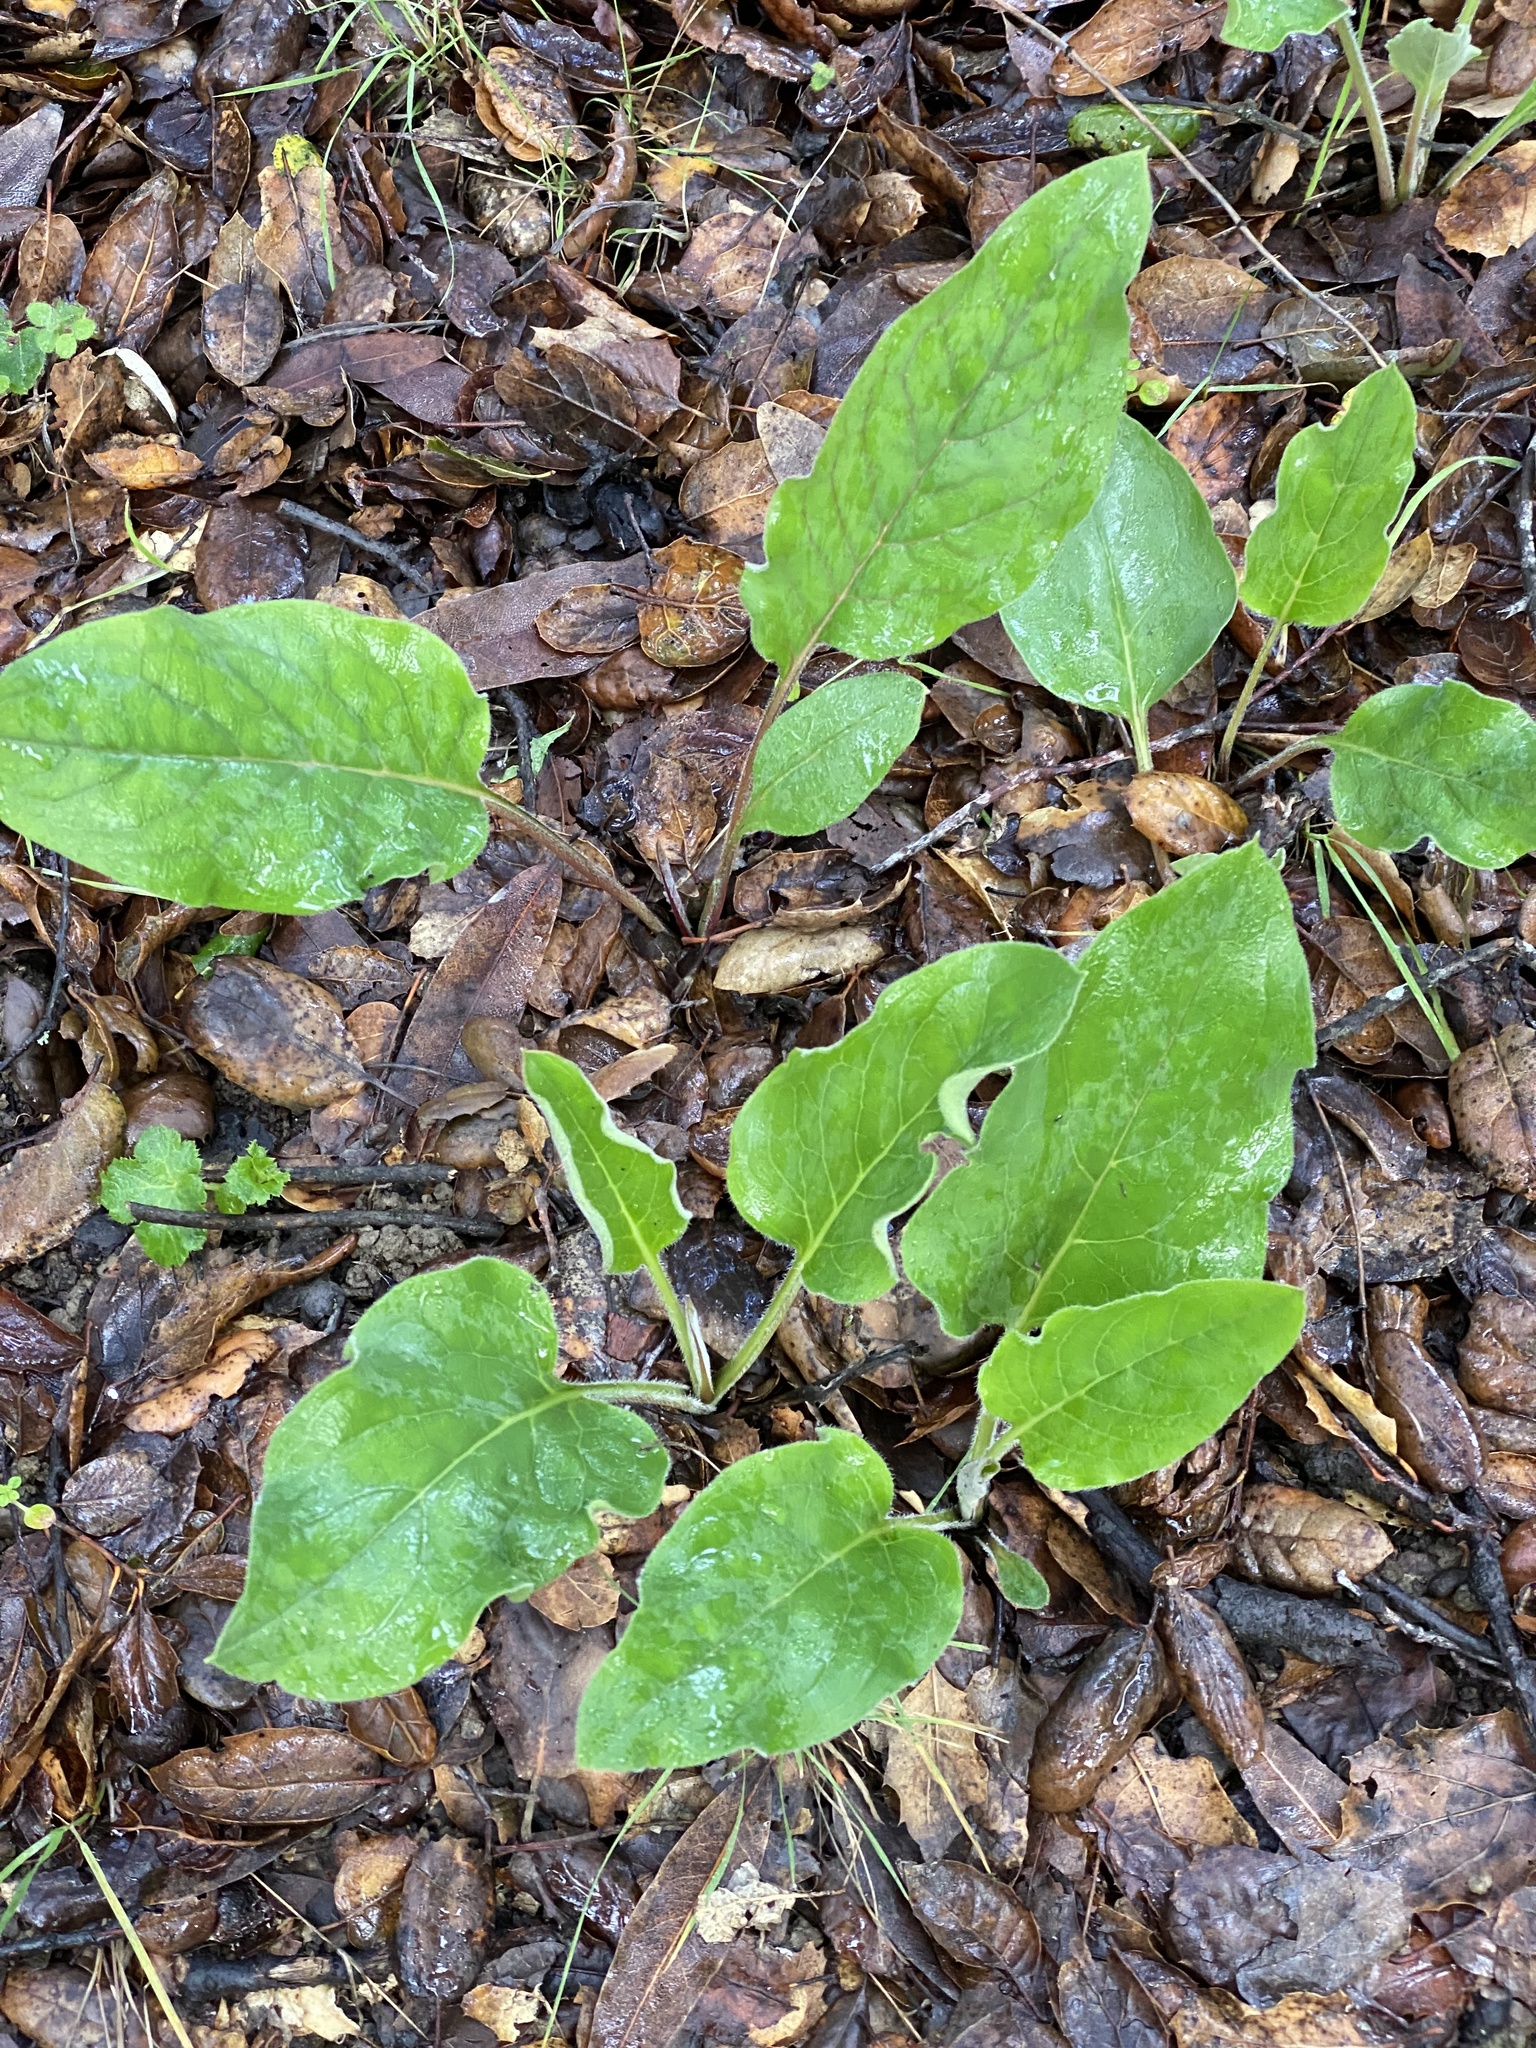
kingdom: Plantae
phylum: Tracheophyta
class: Magnoliopsida
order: Boraginales
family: Boraginaceae
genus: Adelinia
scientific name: Adelinia grande
